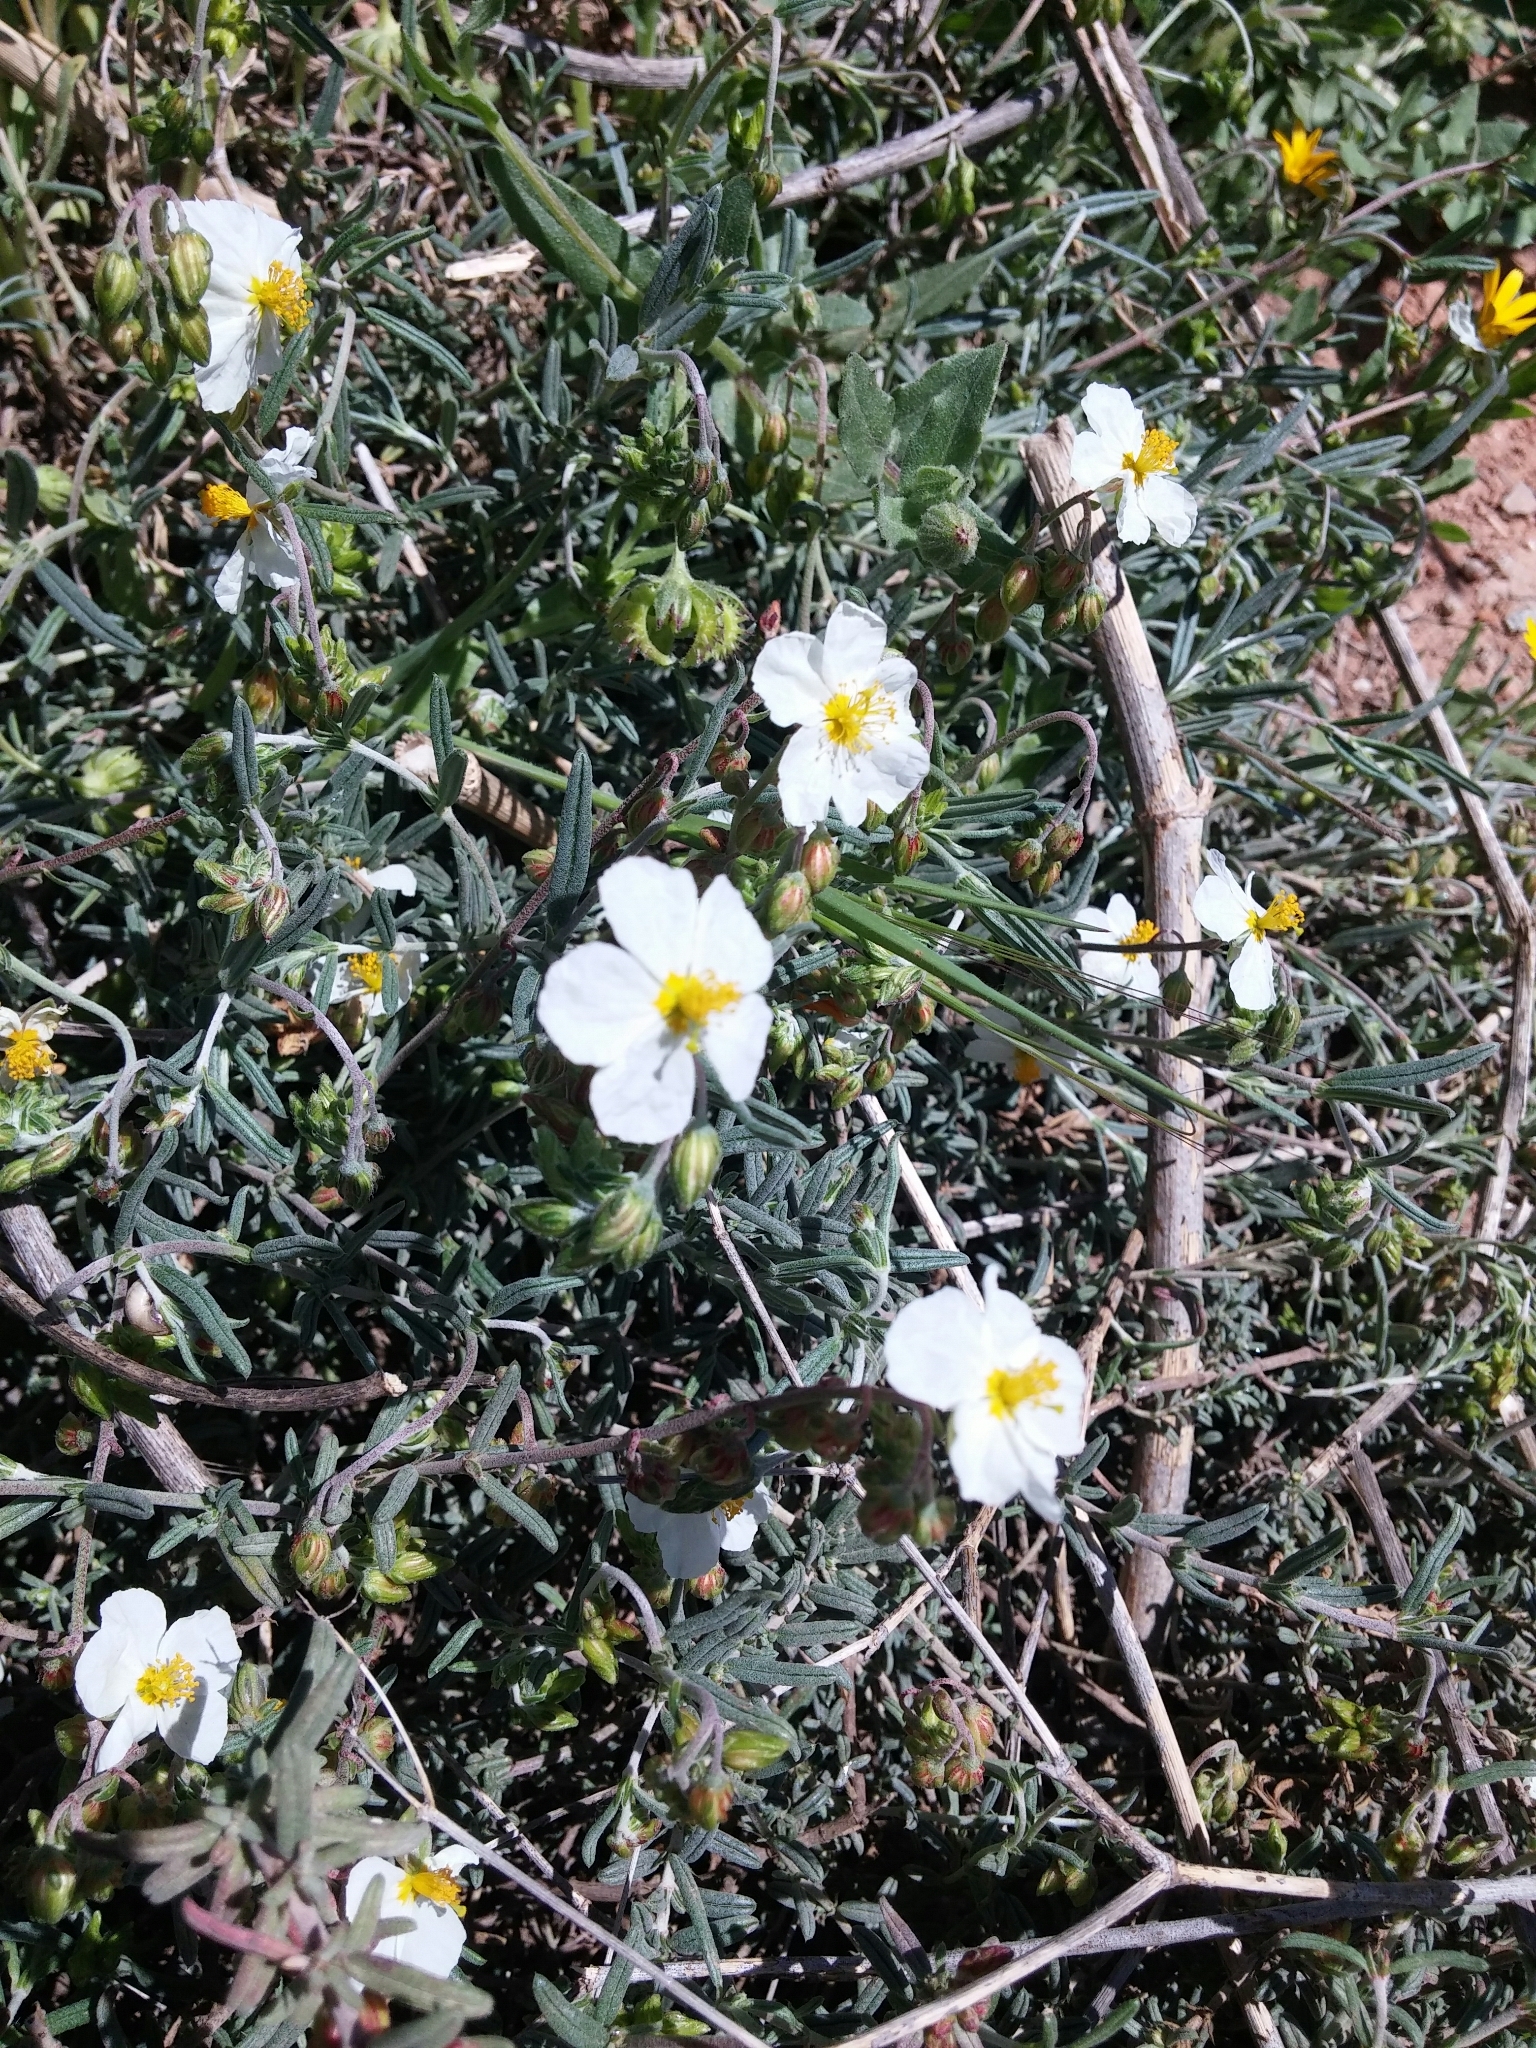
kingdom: Plantae
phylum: Tracheophyta
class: Magnoliopsida
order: Malvales
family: Cistaceae
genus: Cistus
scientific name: Cistus monspeliensis
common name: Montpelier cistus
